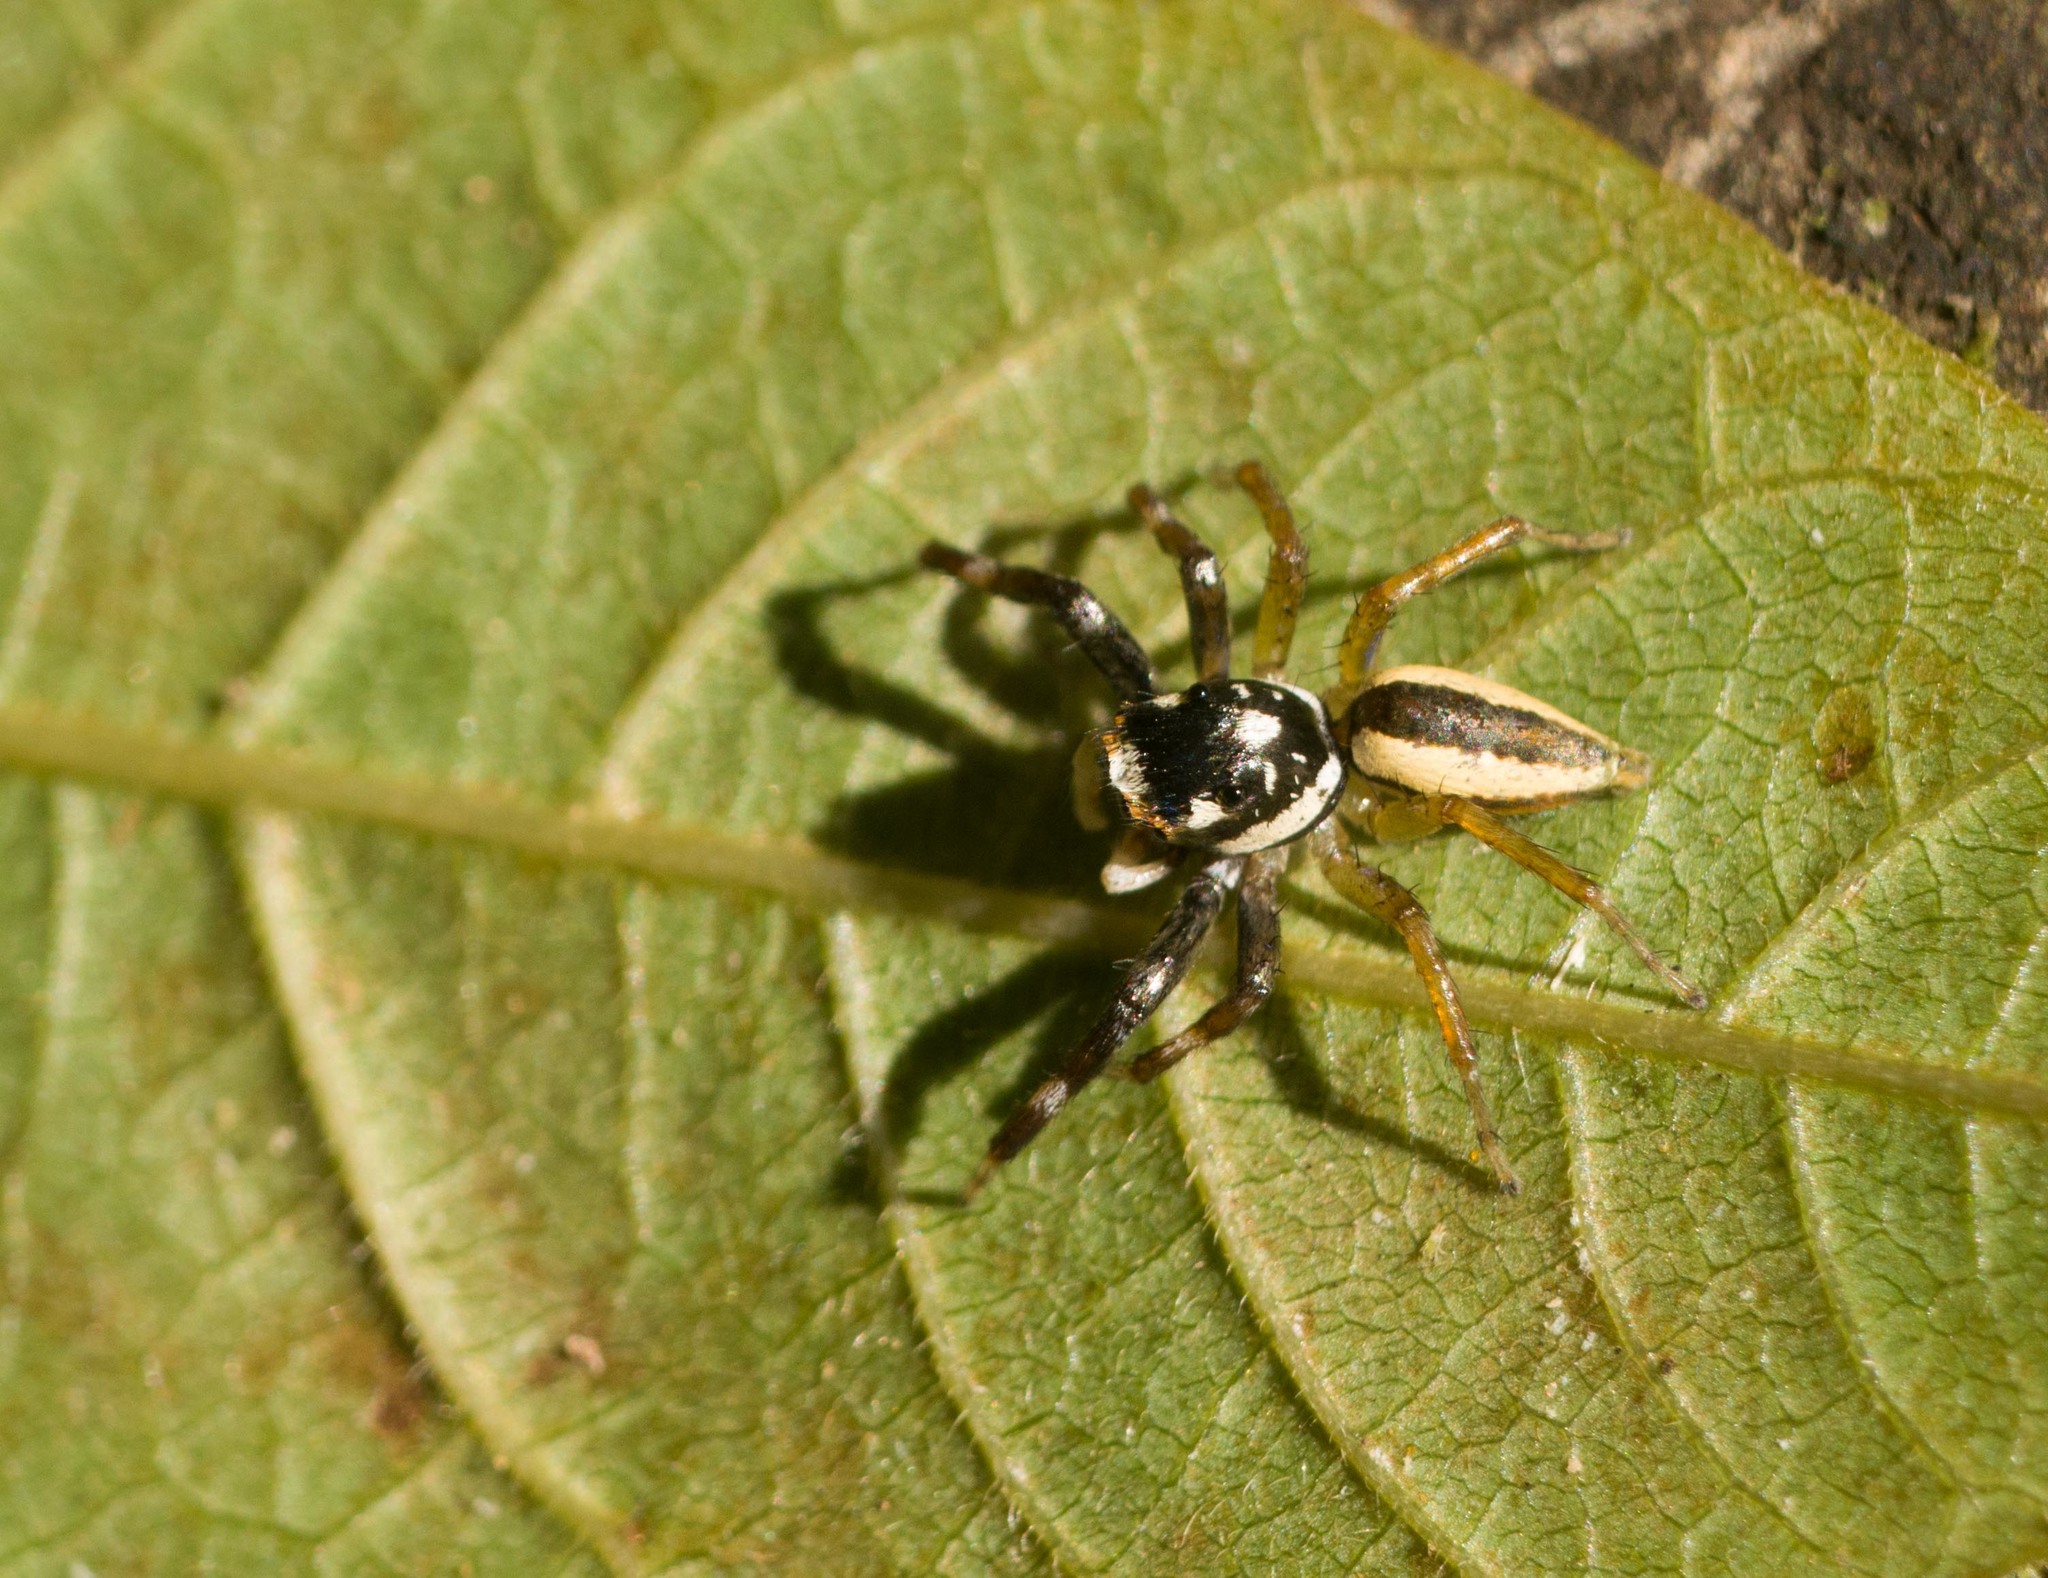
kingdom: Animalia
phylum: Arthropoda
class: Arachnida
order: Araneae
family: Salticidae
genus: Phintelloides
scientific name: Phintelloides versicolor
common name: Jumping spider
